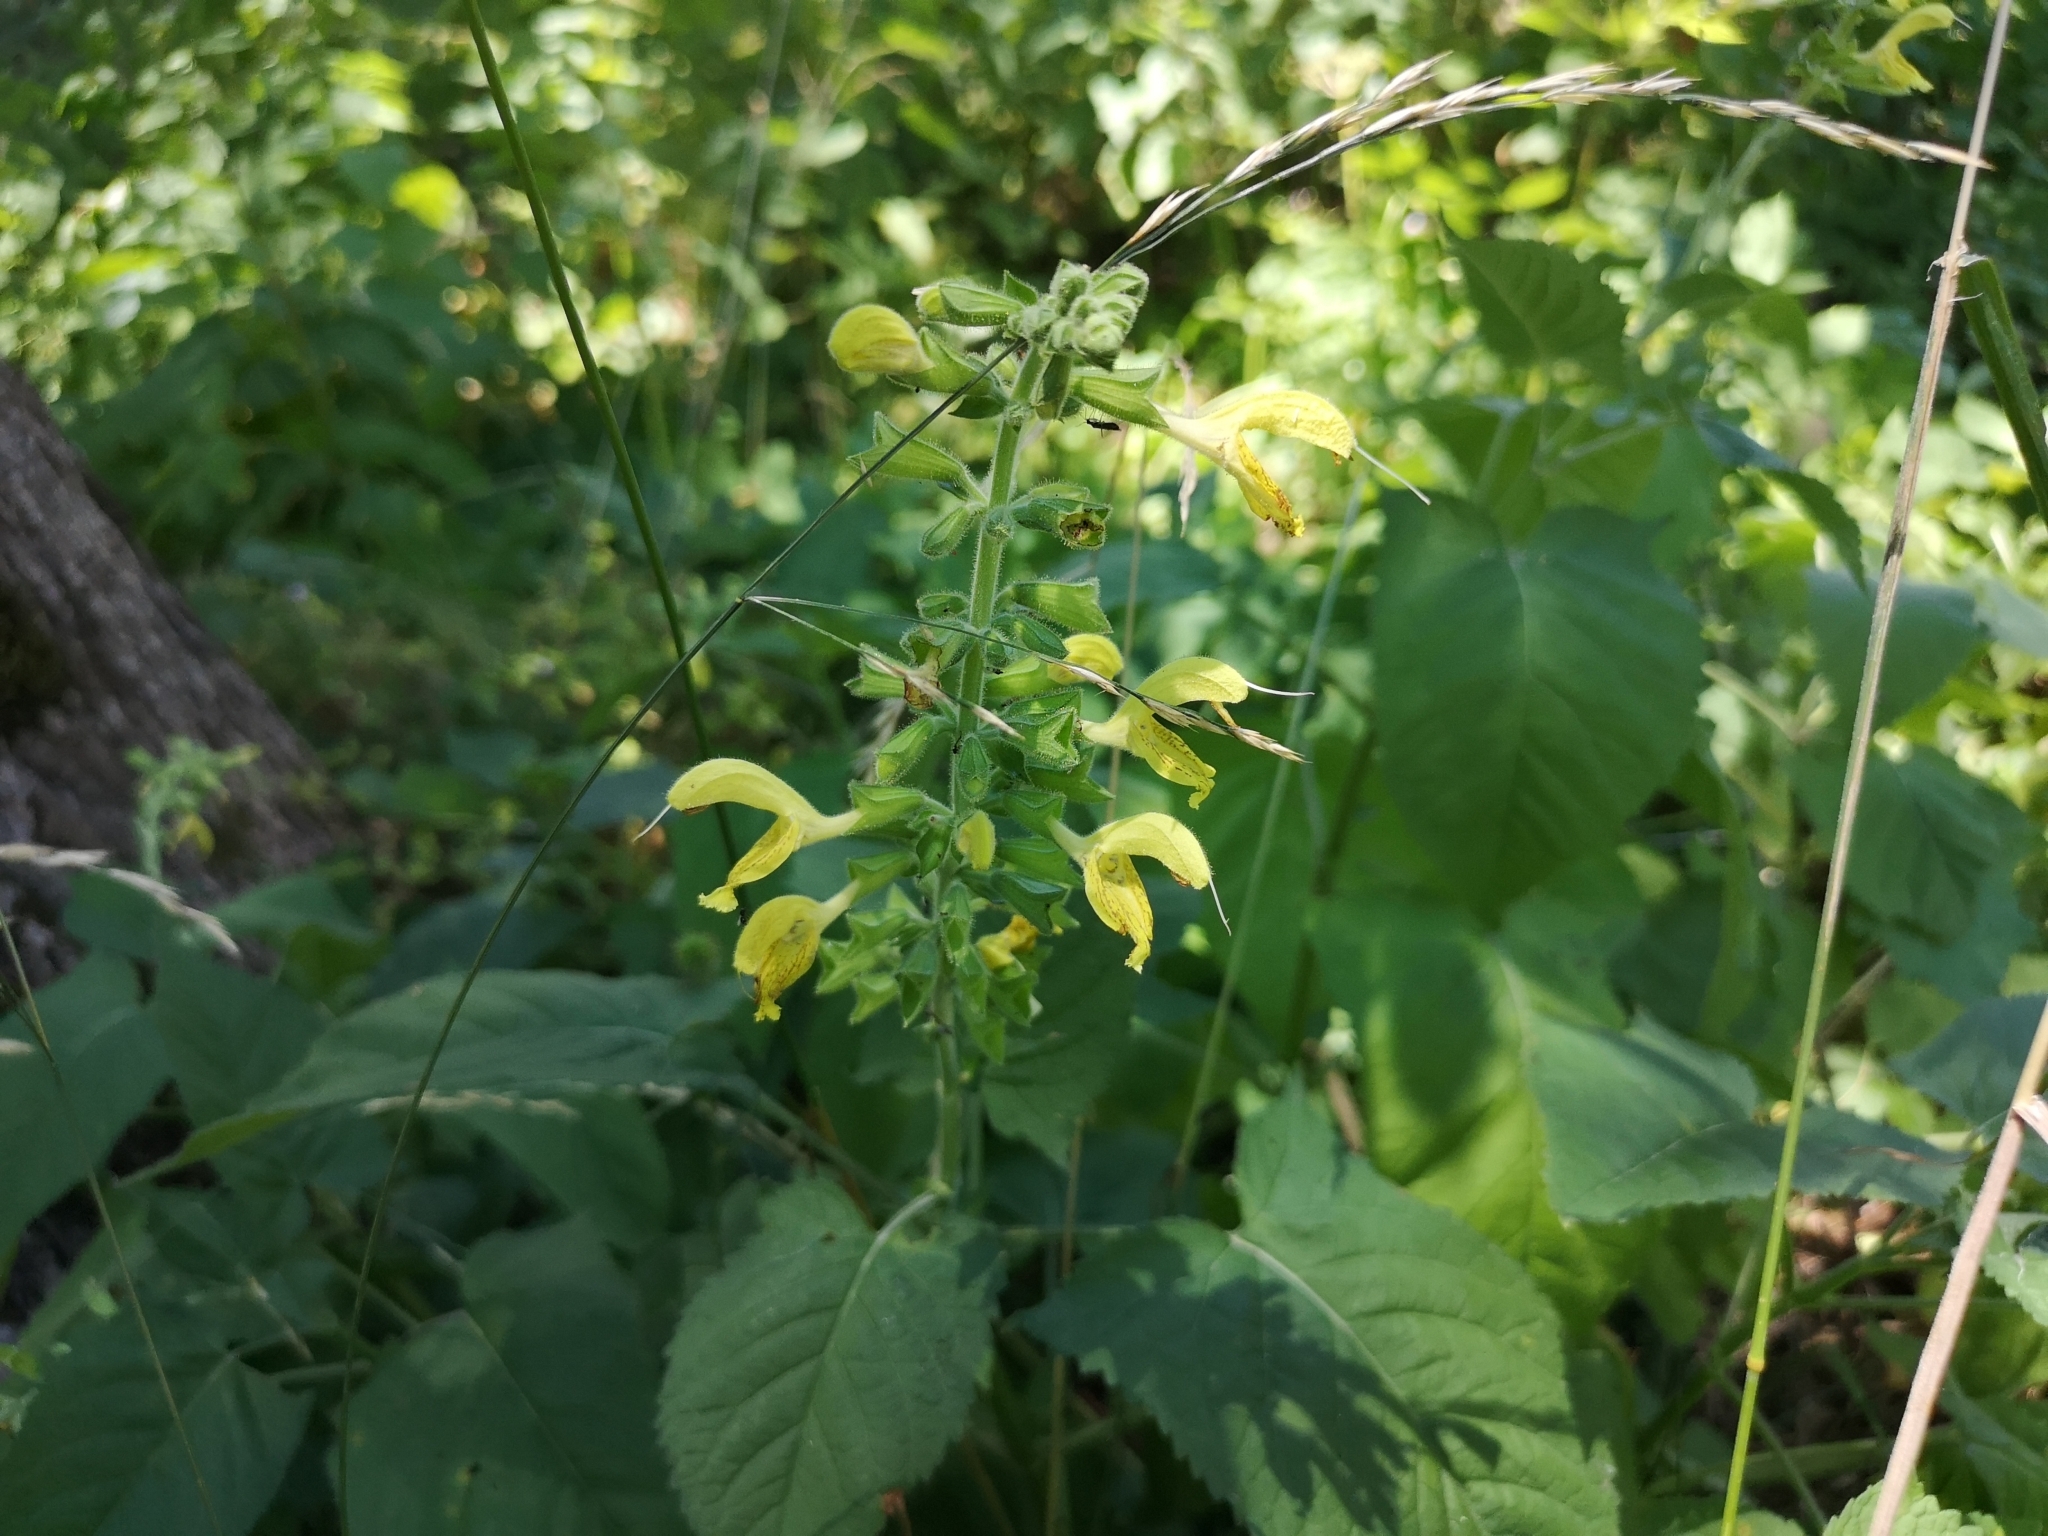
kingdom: Plantae
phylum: Tracheophyta
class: Magnoliopsida
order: Lamiales
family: Lamiaceae
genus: Salvia
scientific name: Salvia glutinosa
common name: Sticky clary
